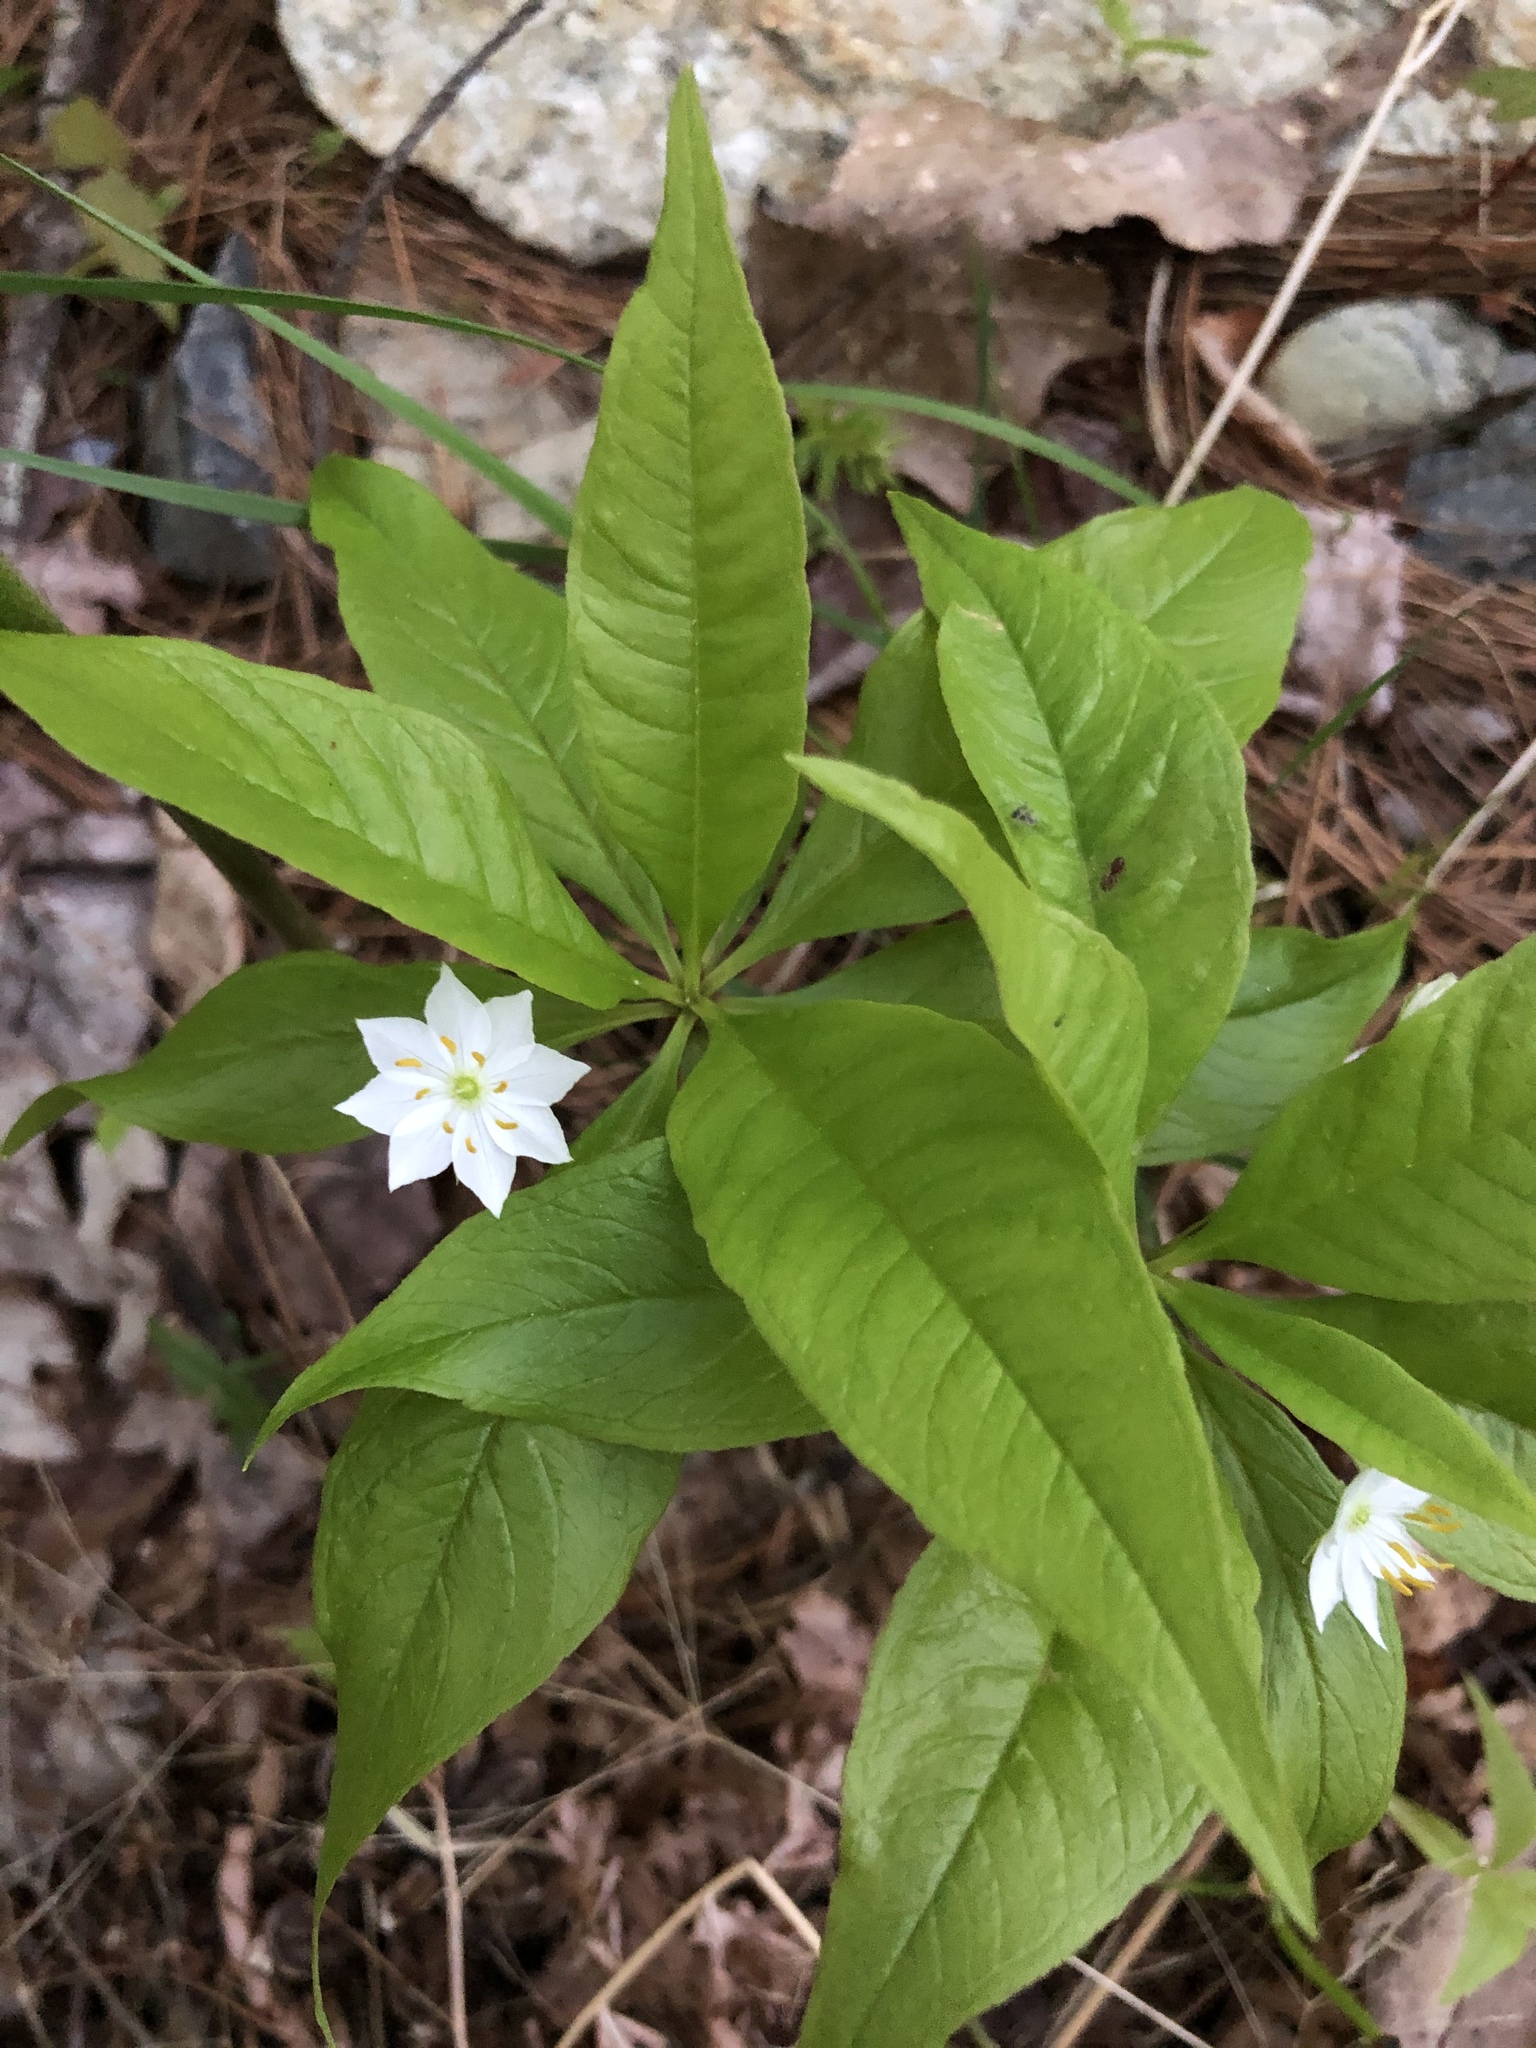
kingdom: Plantae
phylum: Tracheophyta
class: Magnoliopsida
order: Ericales
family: Primulaceae
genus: Lysimachia
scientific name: Lysimachia borealis
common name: American starflower
